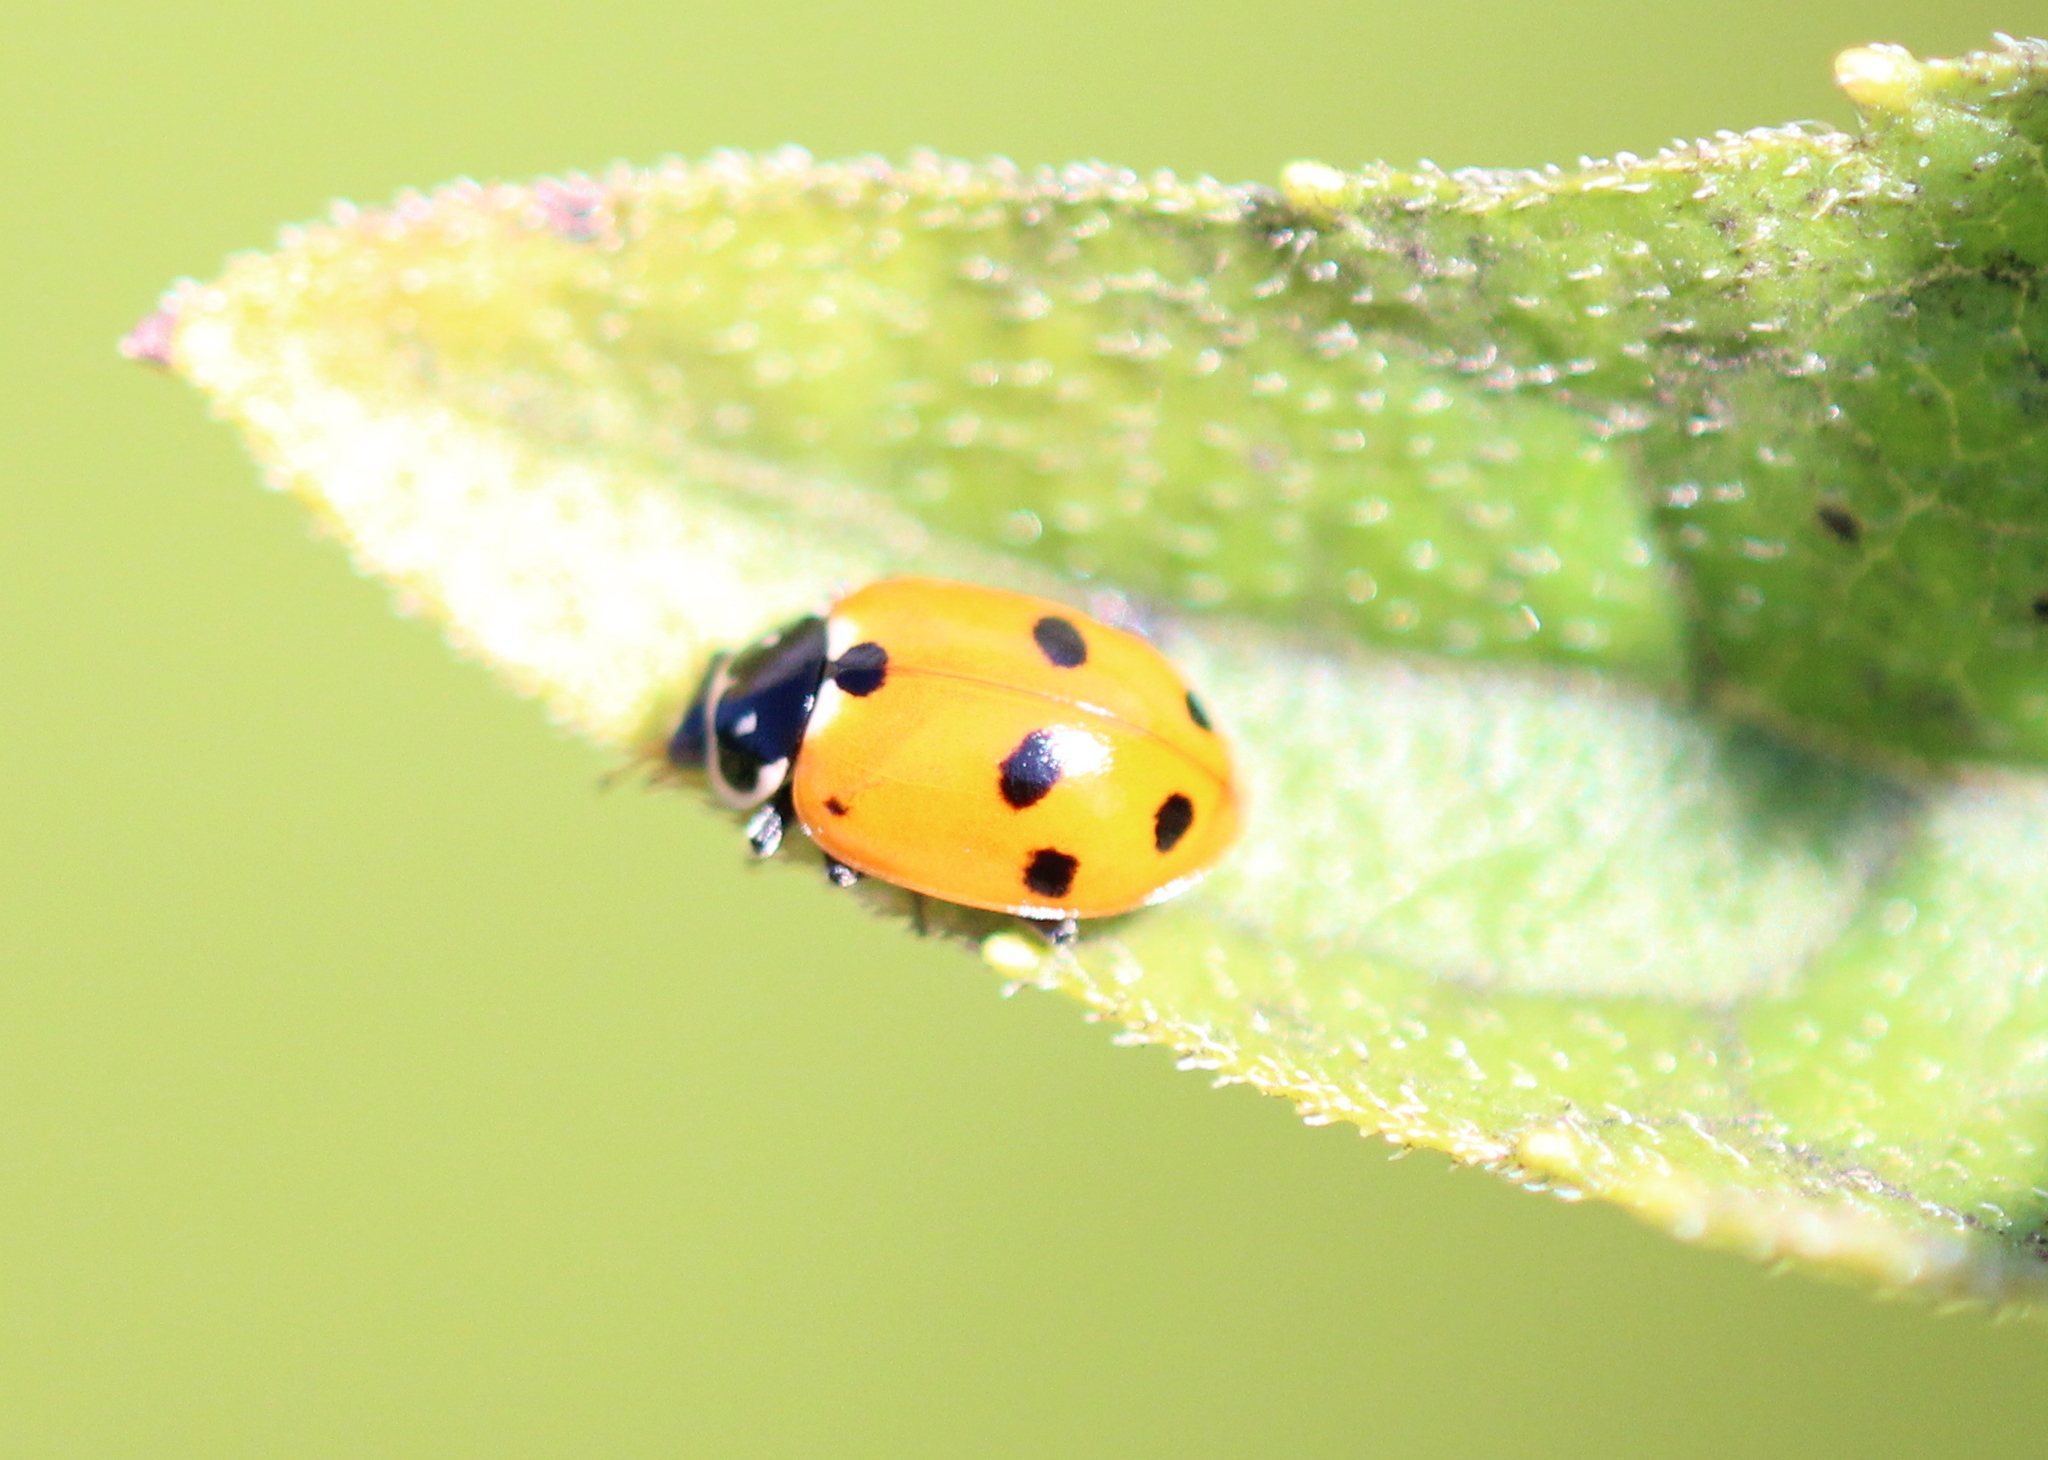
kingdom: Animalia
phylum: Arthropoda
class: Insecta
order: Coleoptera
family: Coccinellidae
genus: Hippodamia
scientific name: Hippodamia variegata
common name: Ladybird beetle
